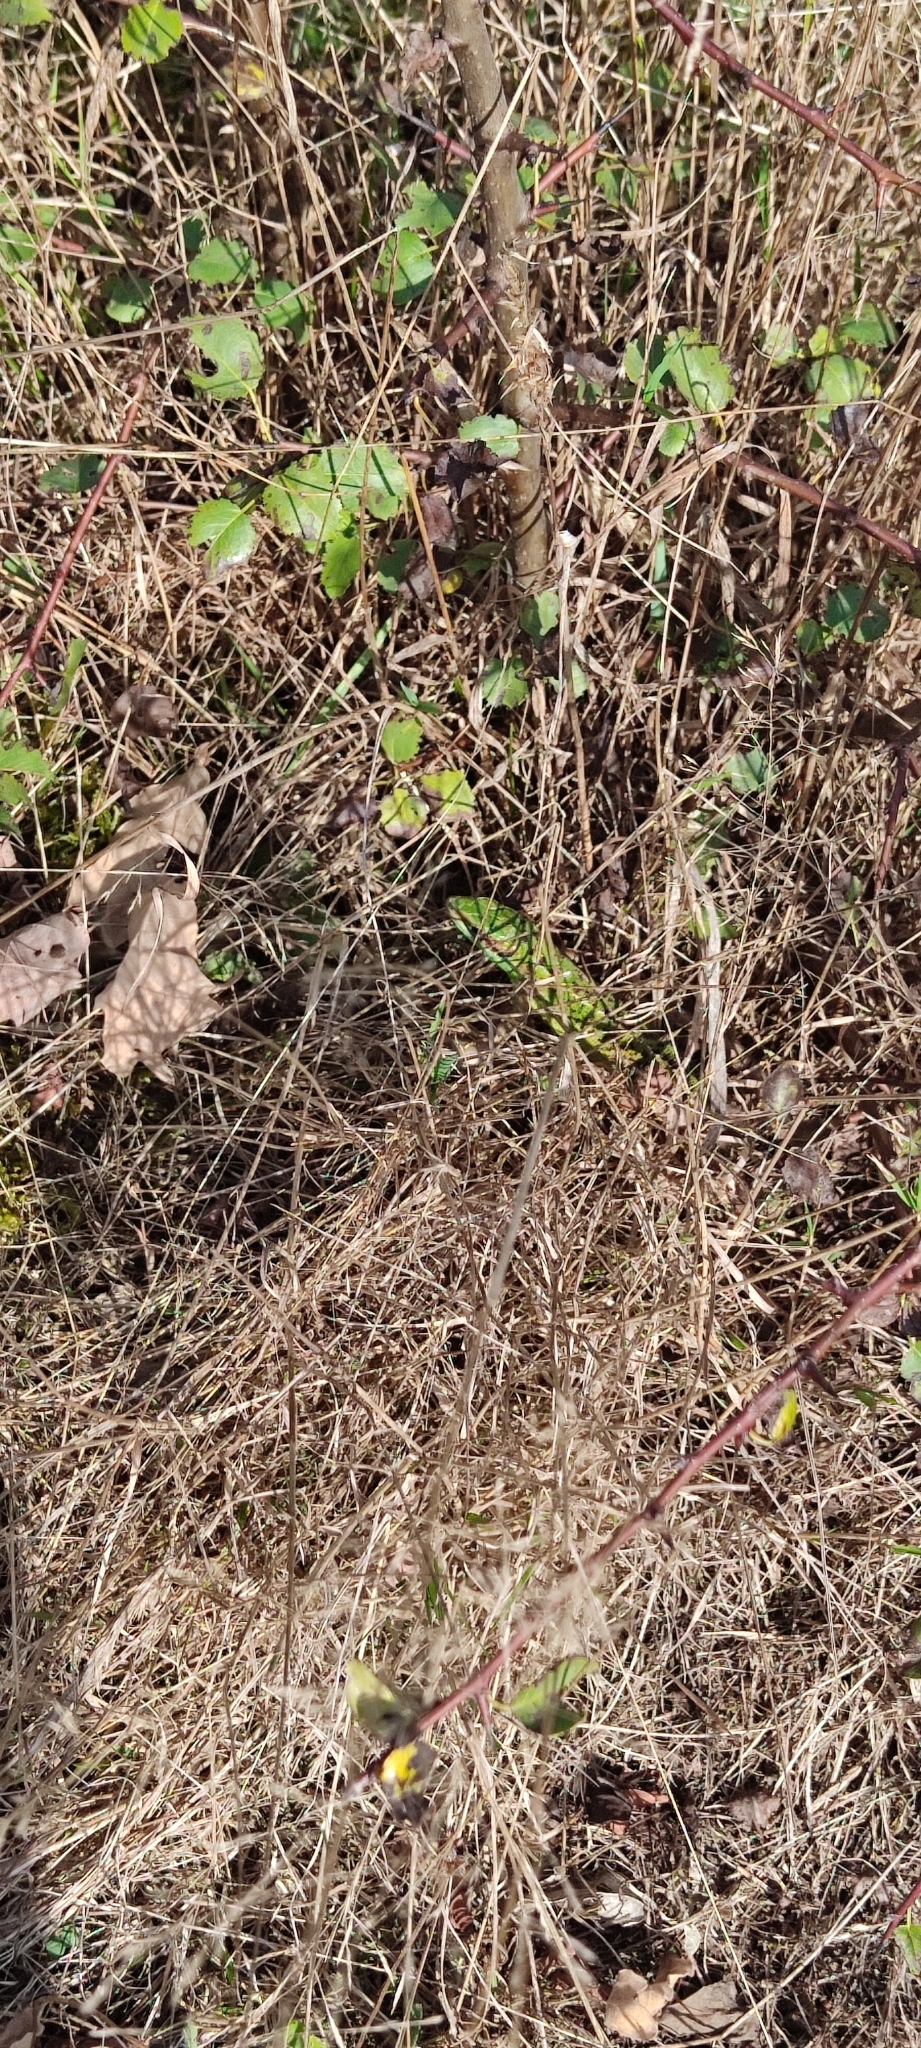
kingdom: Animalia
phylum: Chordata
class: Squamata
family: Lacertidae
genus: Lacerta
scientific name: Lacerta bilineata
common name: Western green lizard
